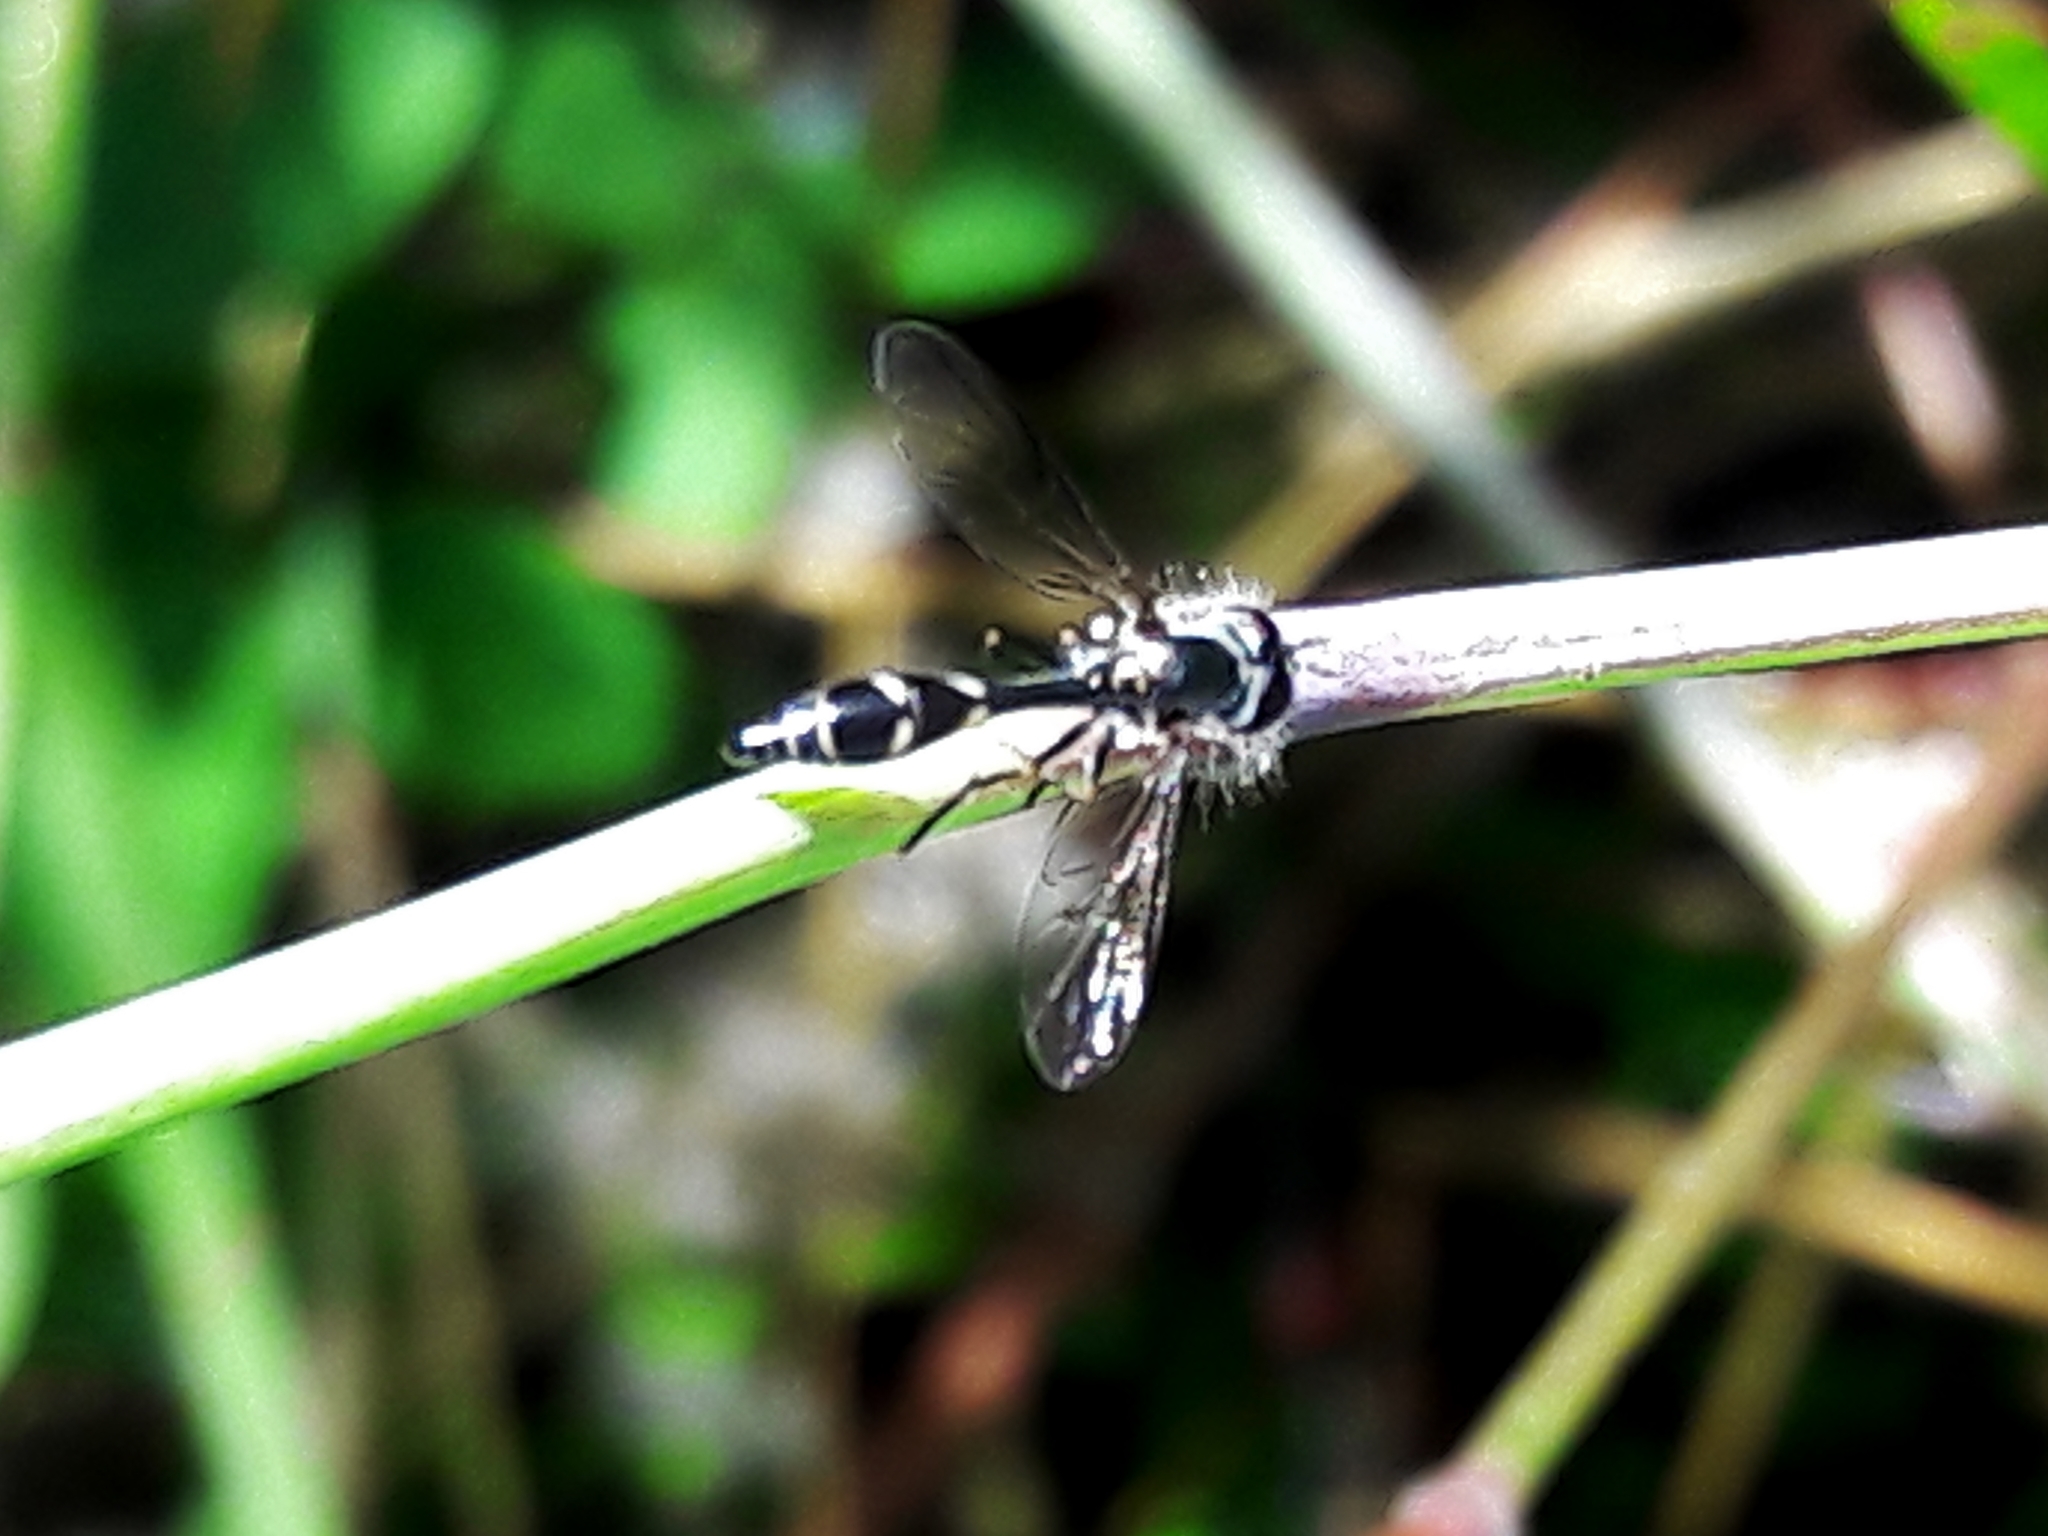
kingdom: Animalia
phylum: Arthropoda
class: Insecta
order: Diptera
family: Syrphidae
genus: Dioprosopa
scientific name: Dioprosopa clavatus
